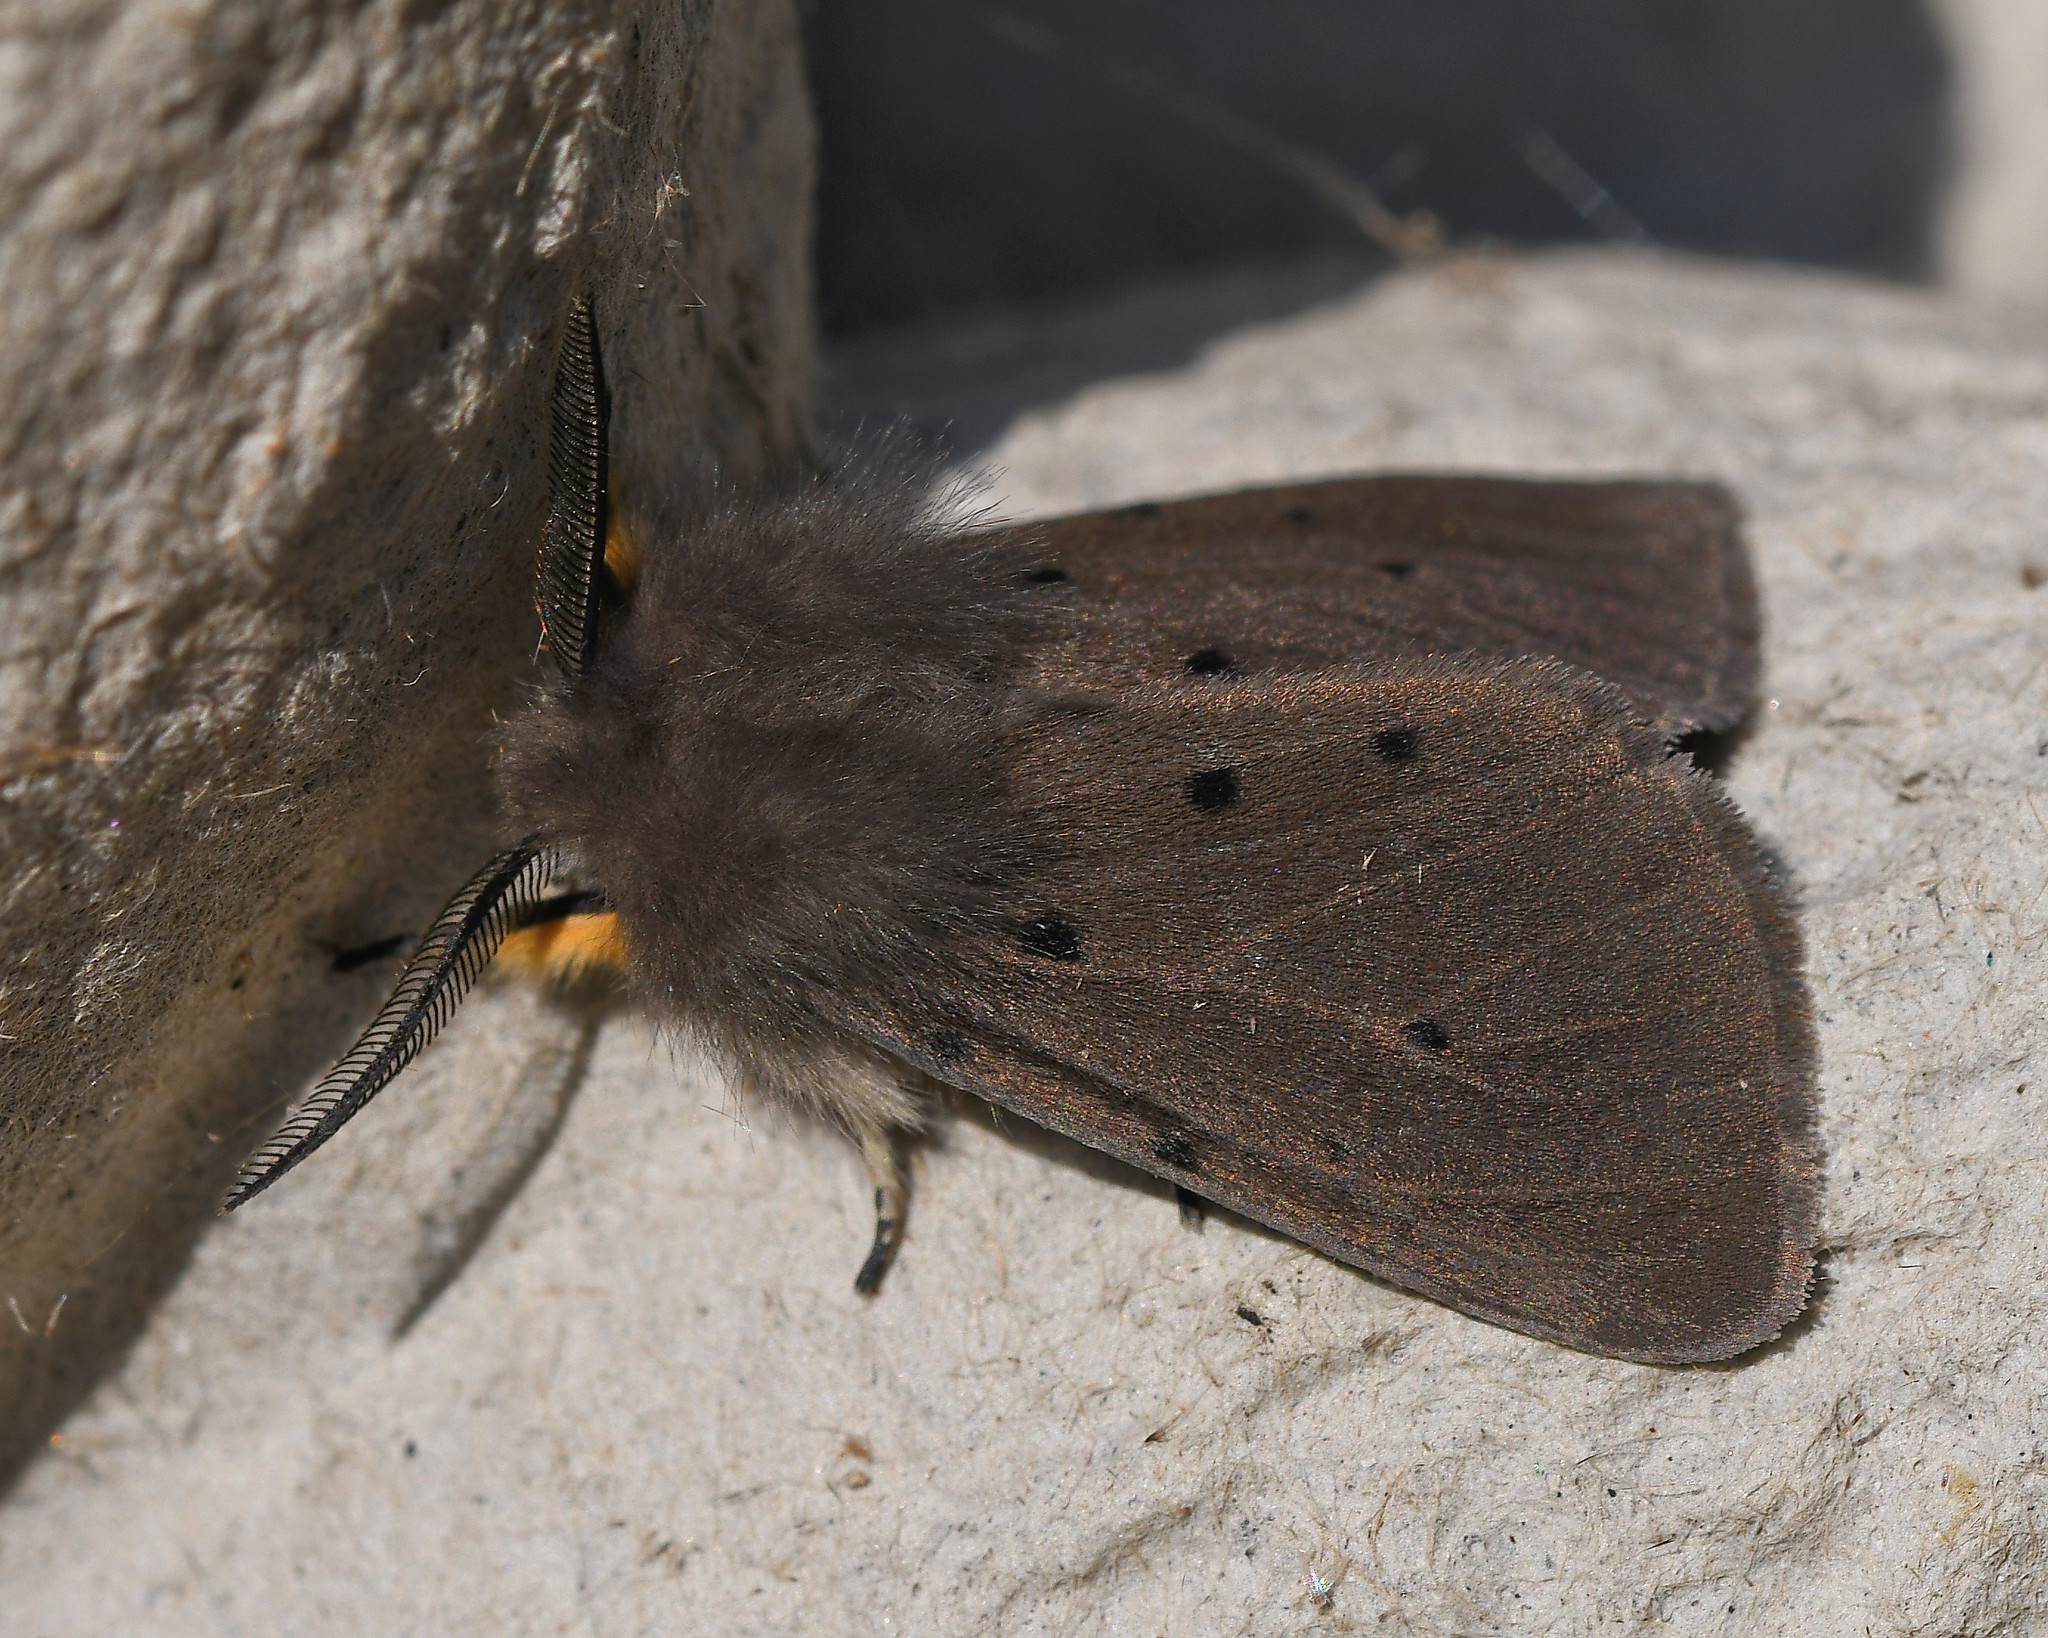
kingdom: Animalia
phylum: Arthropoda
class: Insecta
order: Lepidoptera
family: Erebidae
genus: Diaphora
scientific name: Diaphora mendica
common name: Muslin moth
